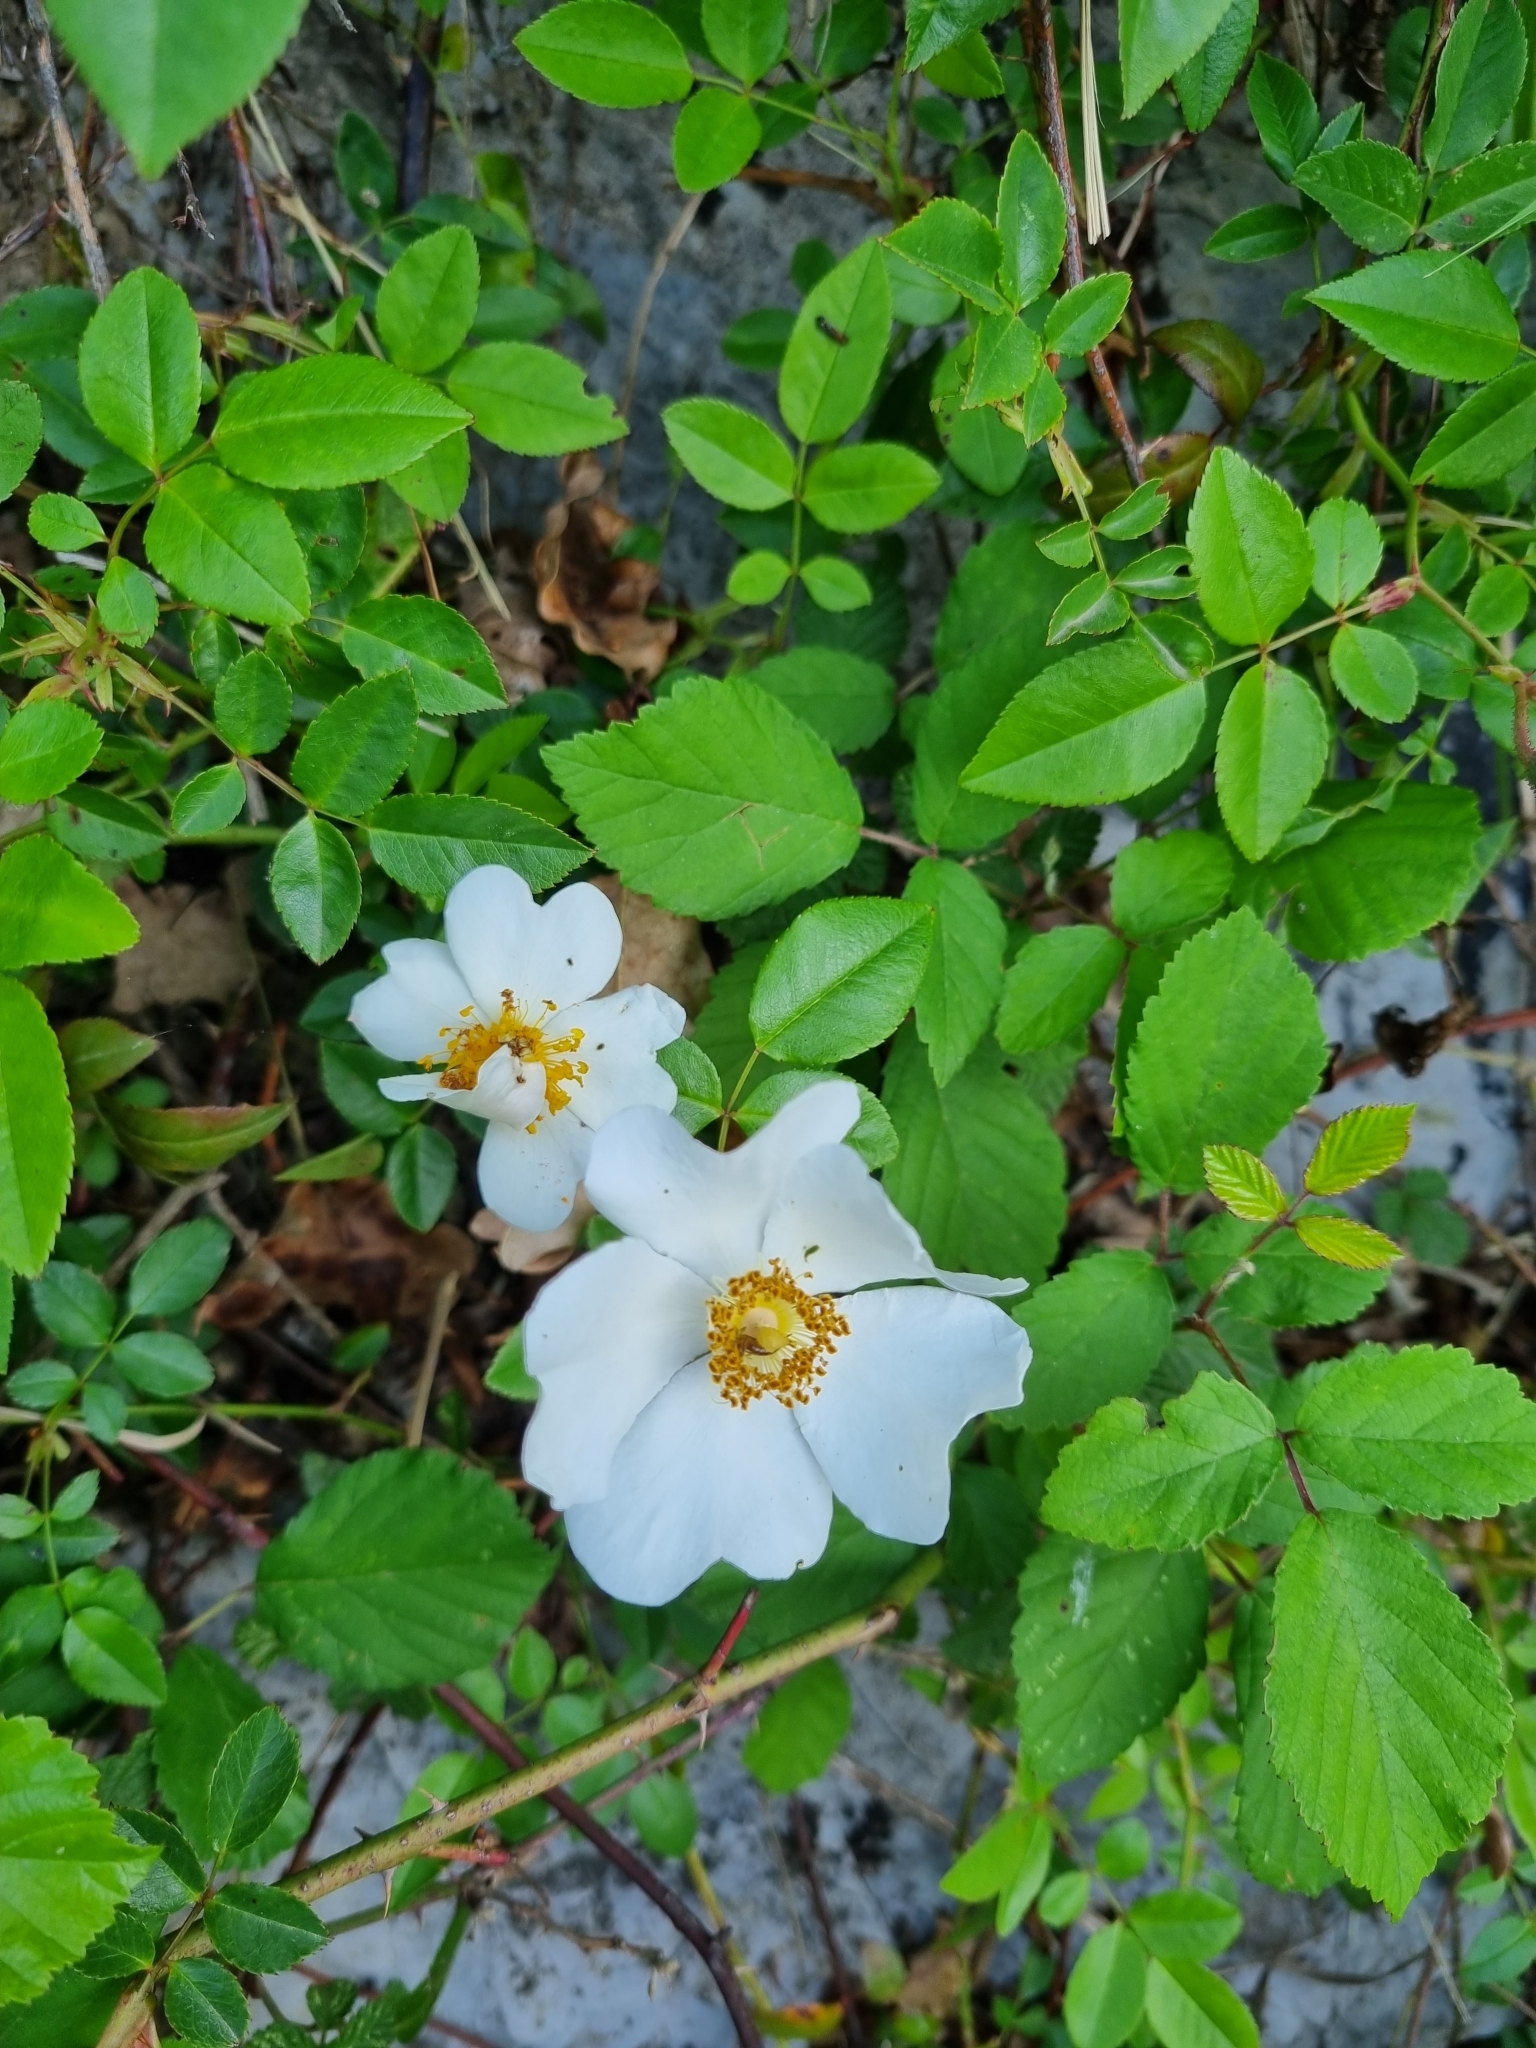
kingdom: Plantae
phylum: Tracheophyta
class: Magnoliopsida
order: Rosales
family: Rosaceae
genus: Rosa
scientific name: Rosa sempervirens
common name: Evergreen rose
